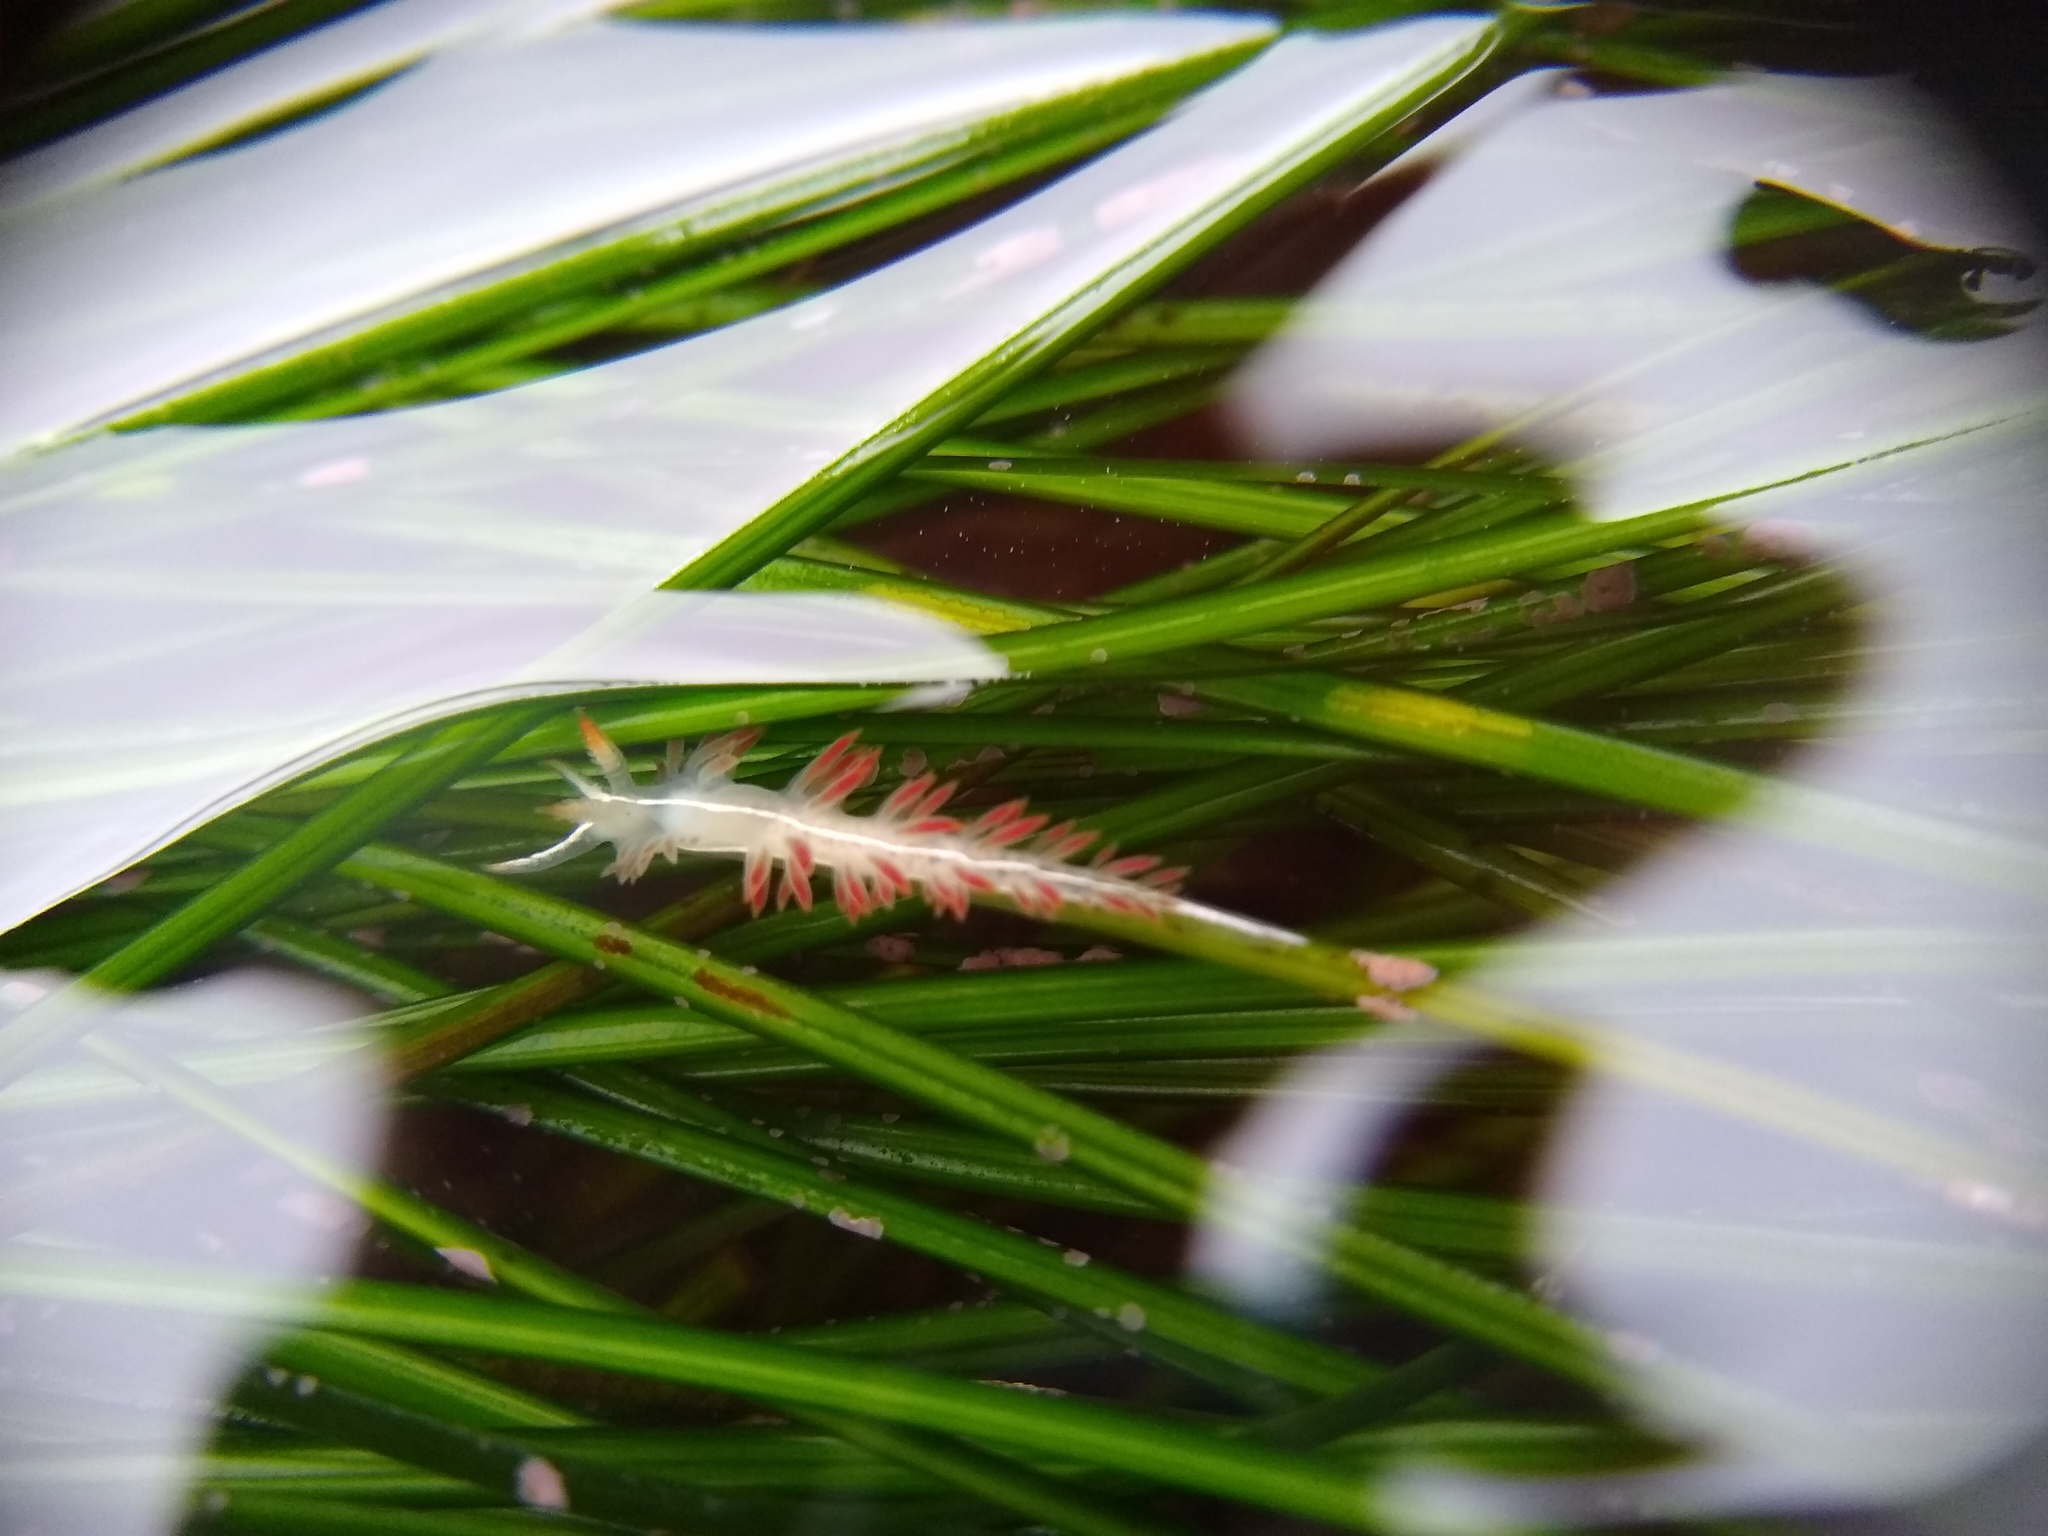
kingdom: Animalia
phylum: Mollusca
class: Gastropoda
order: Nudibranchia
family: Coryphellidae
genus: Coryphella
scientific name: Coryphella trilineata
